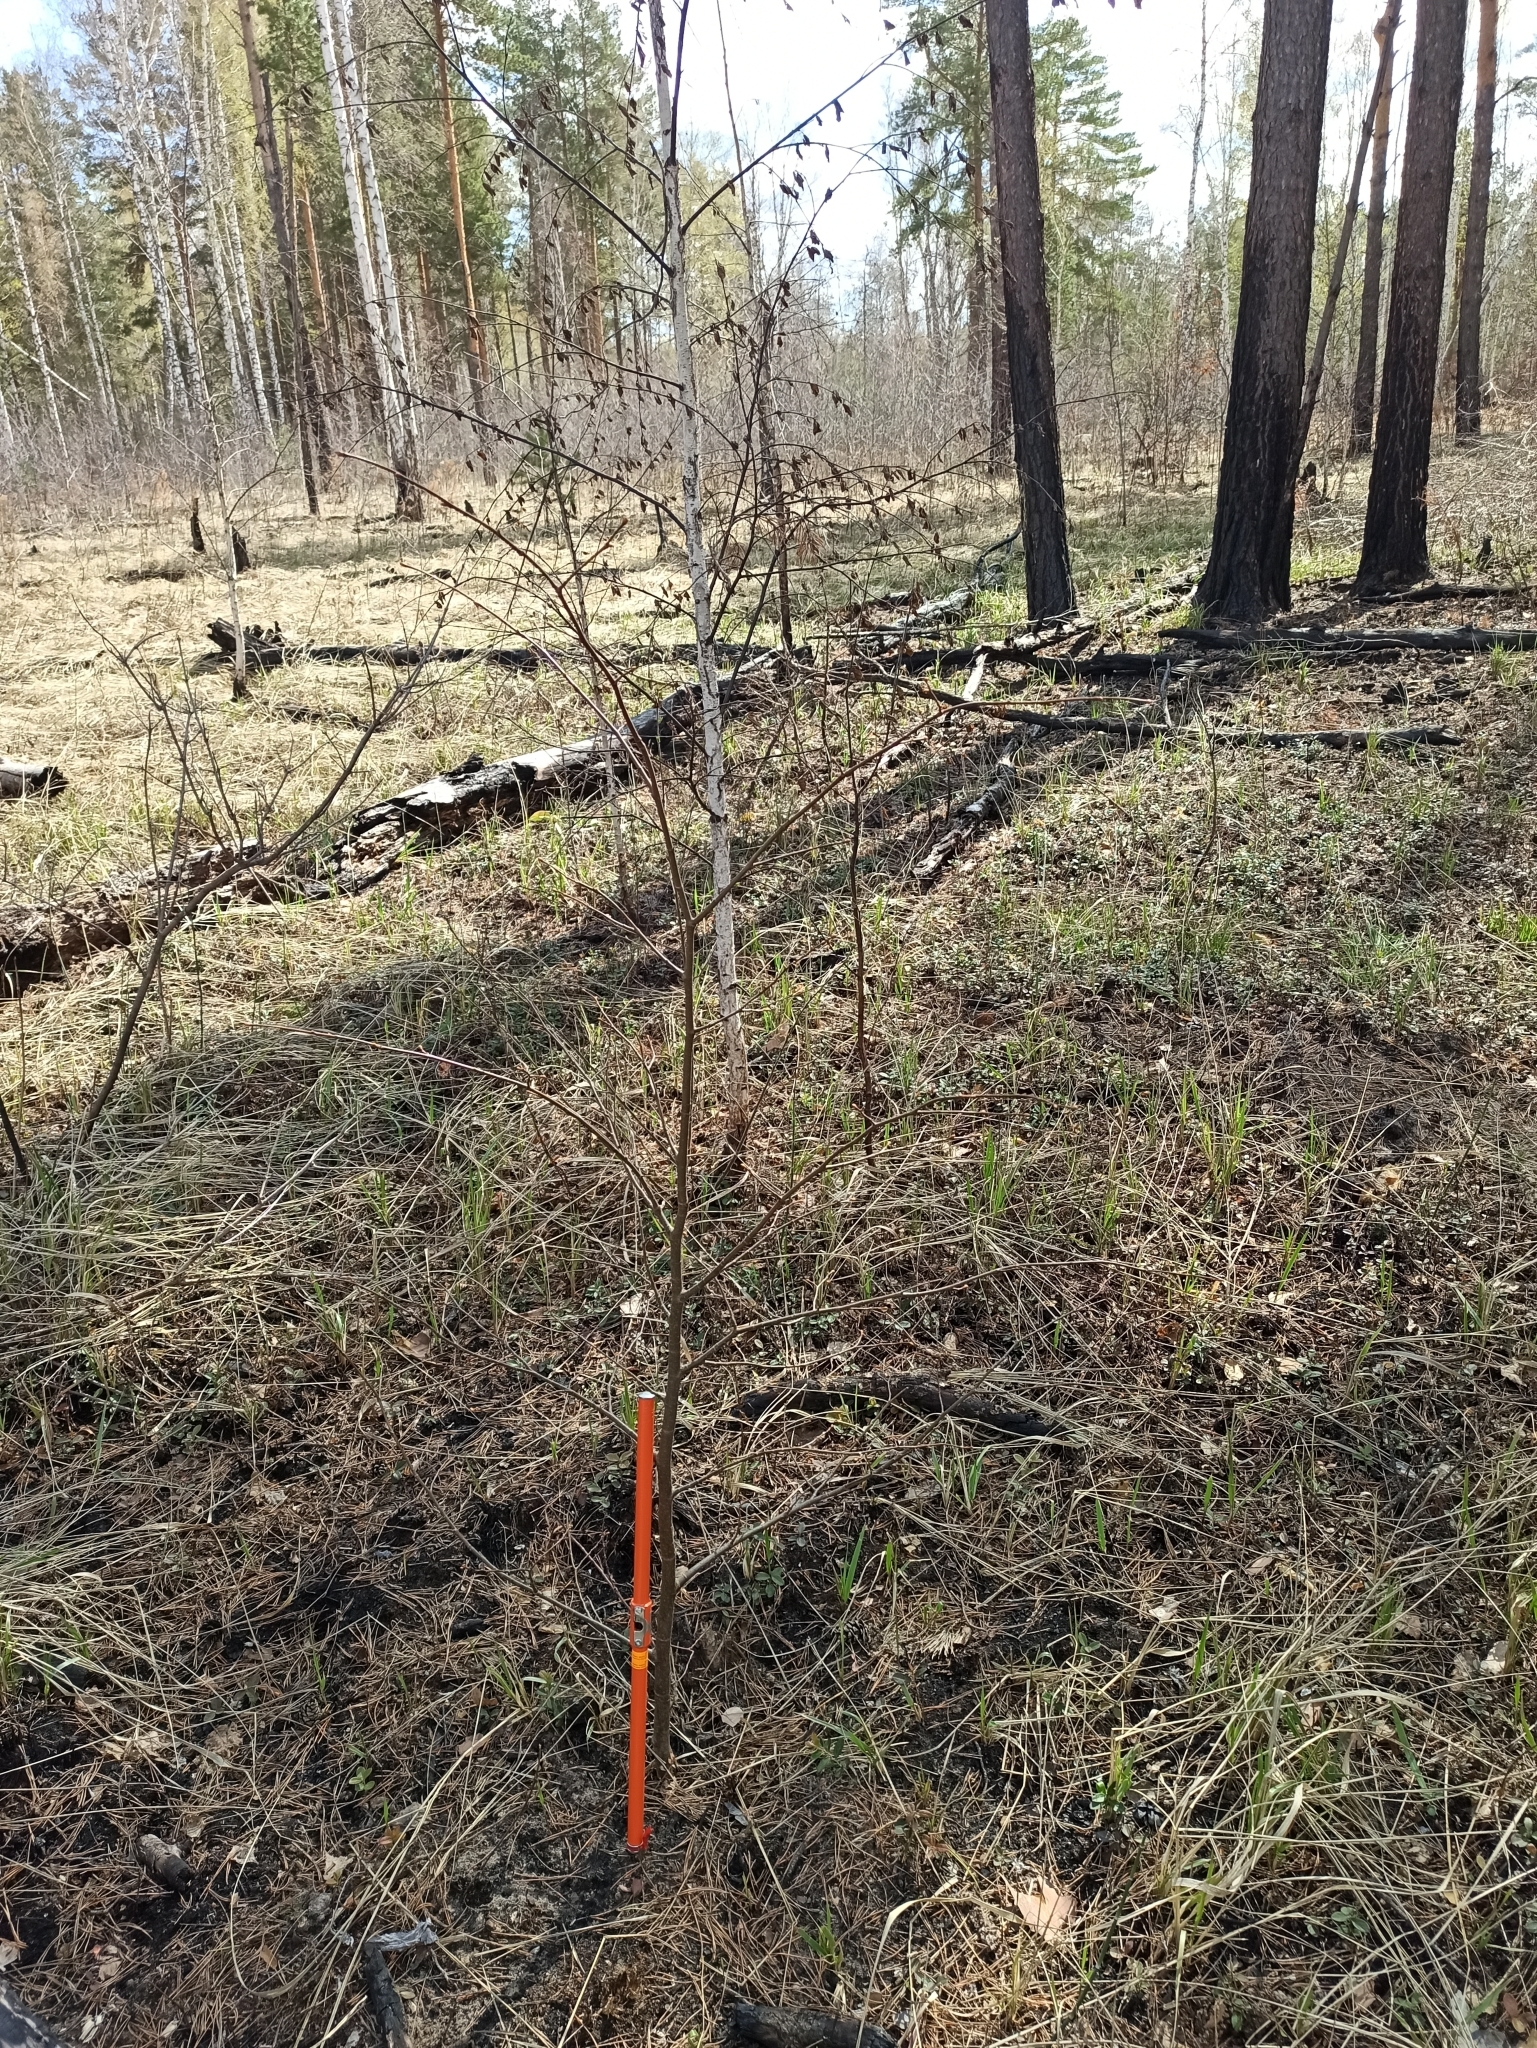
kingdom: Plantae
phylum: Tracheophyta
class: Magnoliopsida
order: Malvales
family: Malvaceae
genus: Tilia
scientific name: Tilia cordata
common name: Small-leaved lime
